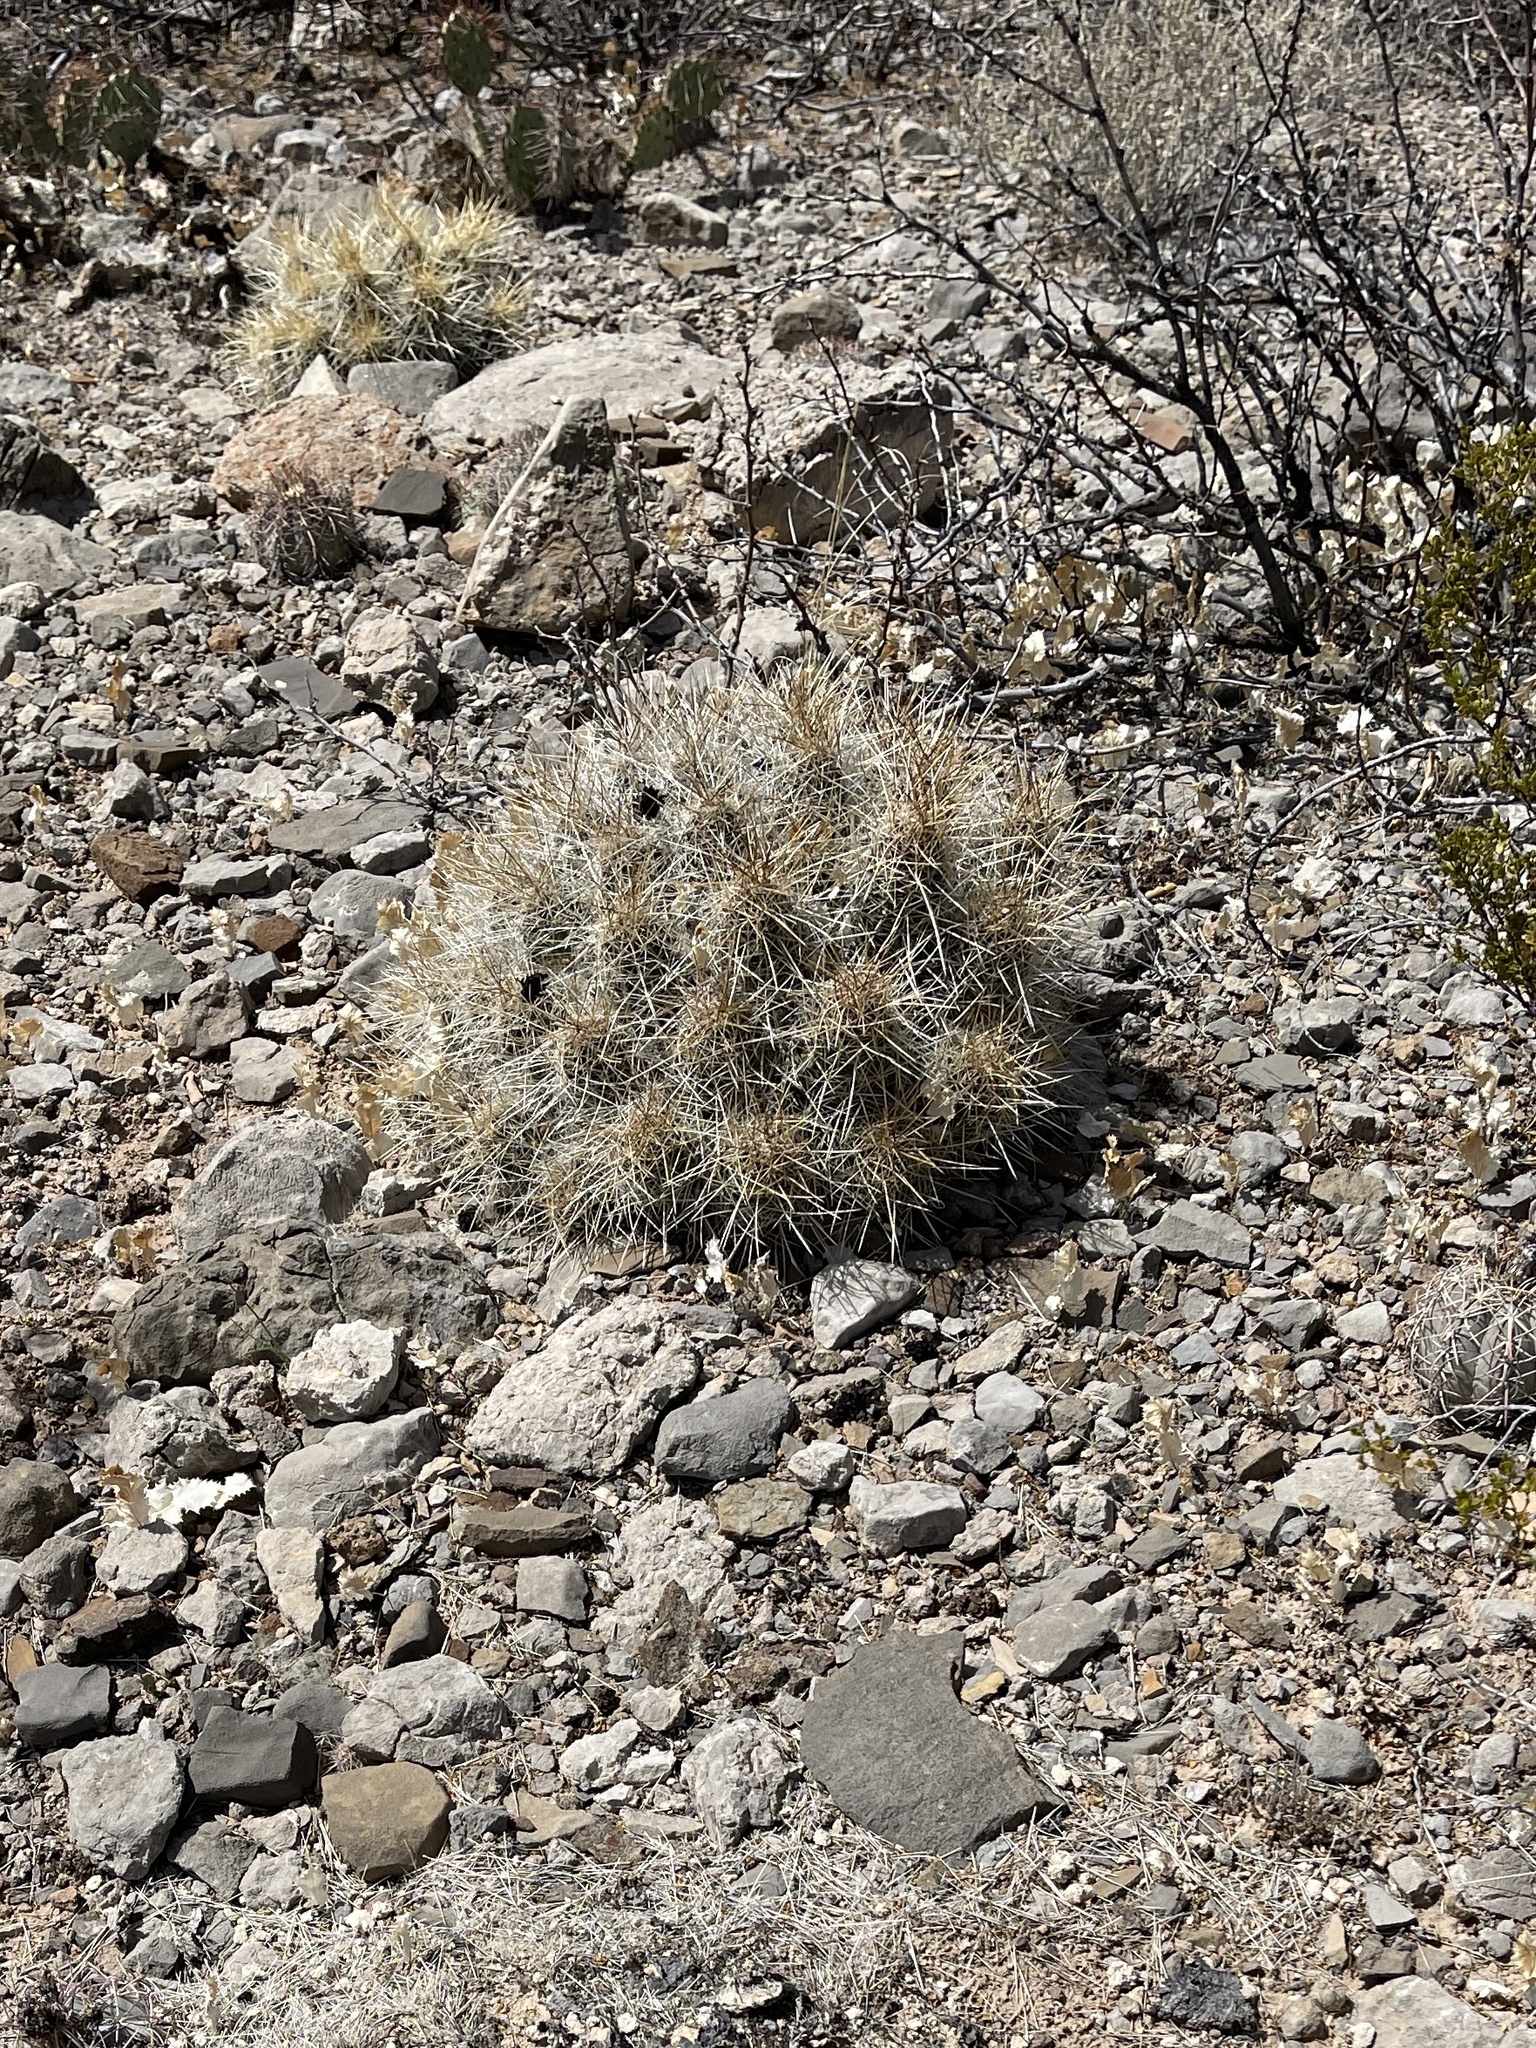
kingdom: Plantae
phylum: Tracheophyta
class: Magnoliopsida
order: Caryophyllales
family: Cactaceae
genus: Echinocereus
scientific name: Echinocereus stramineus
